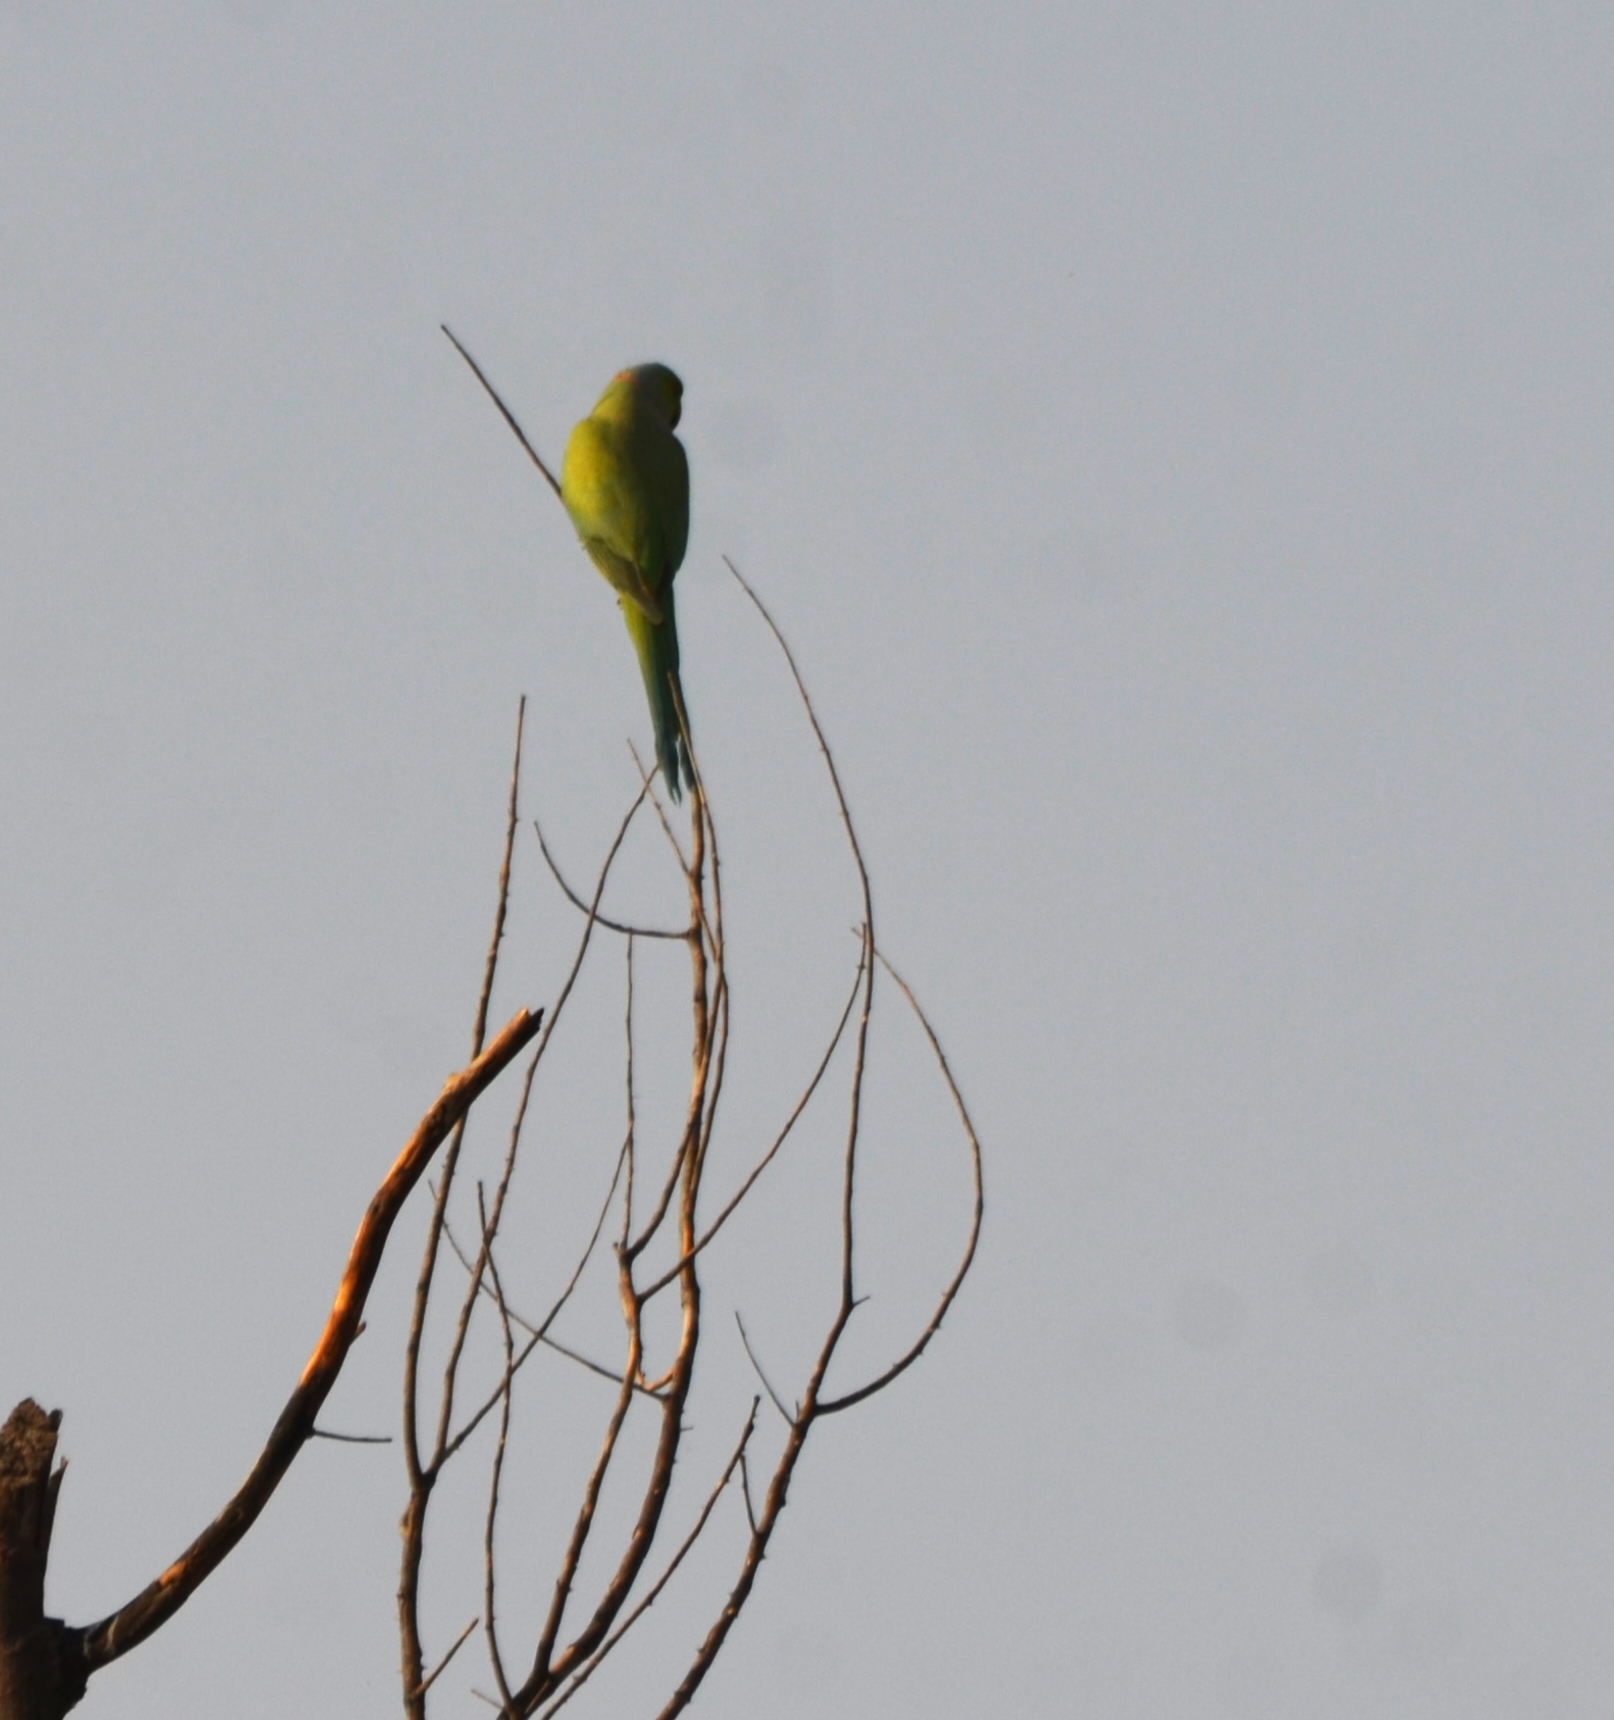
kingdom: Animalia
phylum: Chordata
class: Aves
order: Psittaciformes
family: Psittacidae
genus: Psittacula
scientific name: Psittacula krameri
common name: Rose-ringed parakeet
